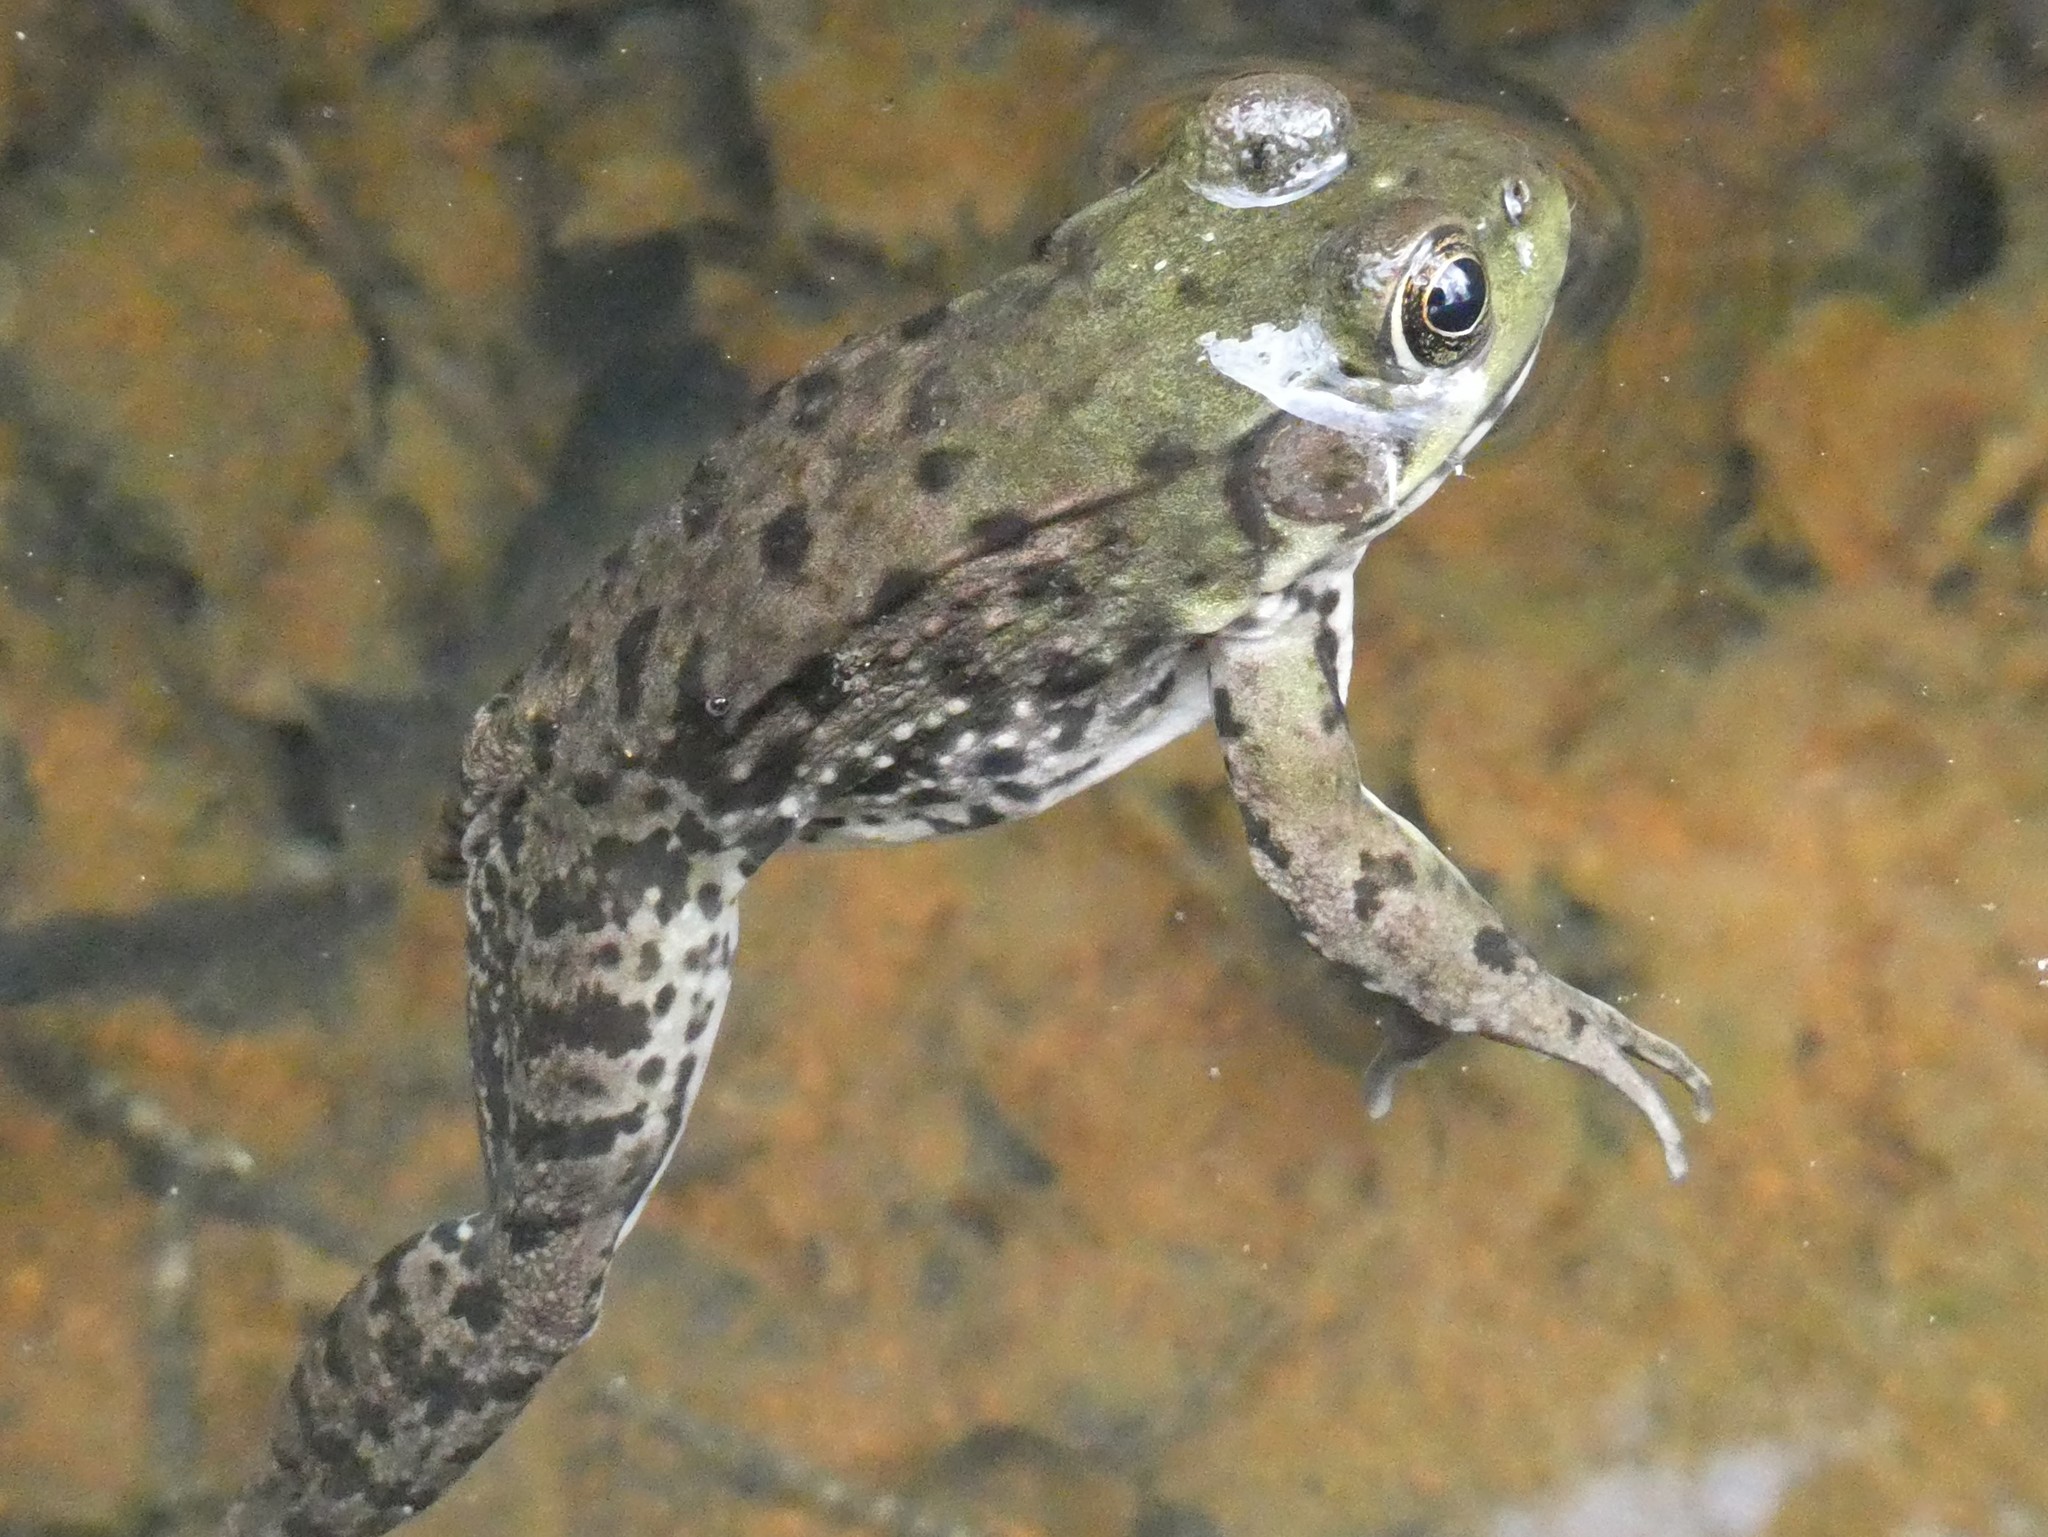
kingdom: Animalia
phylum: Chordata
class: Amphibia
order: Anura
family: Ranidae
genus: Lithobates
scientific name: Lithobates clamitans
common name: Green frog
